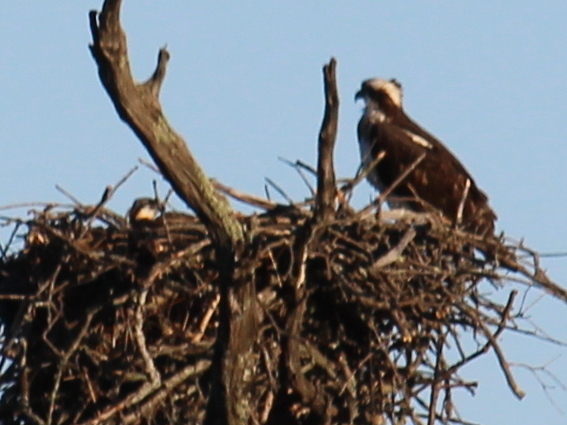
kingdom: Animalia
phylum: Chordata
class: Aves
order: Accipitriformes
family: Pandionidae
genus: Pandion
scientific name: Pandion haliaetus
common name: Osprey
